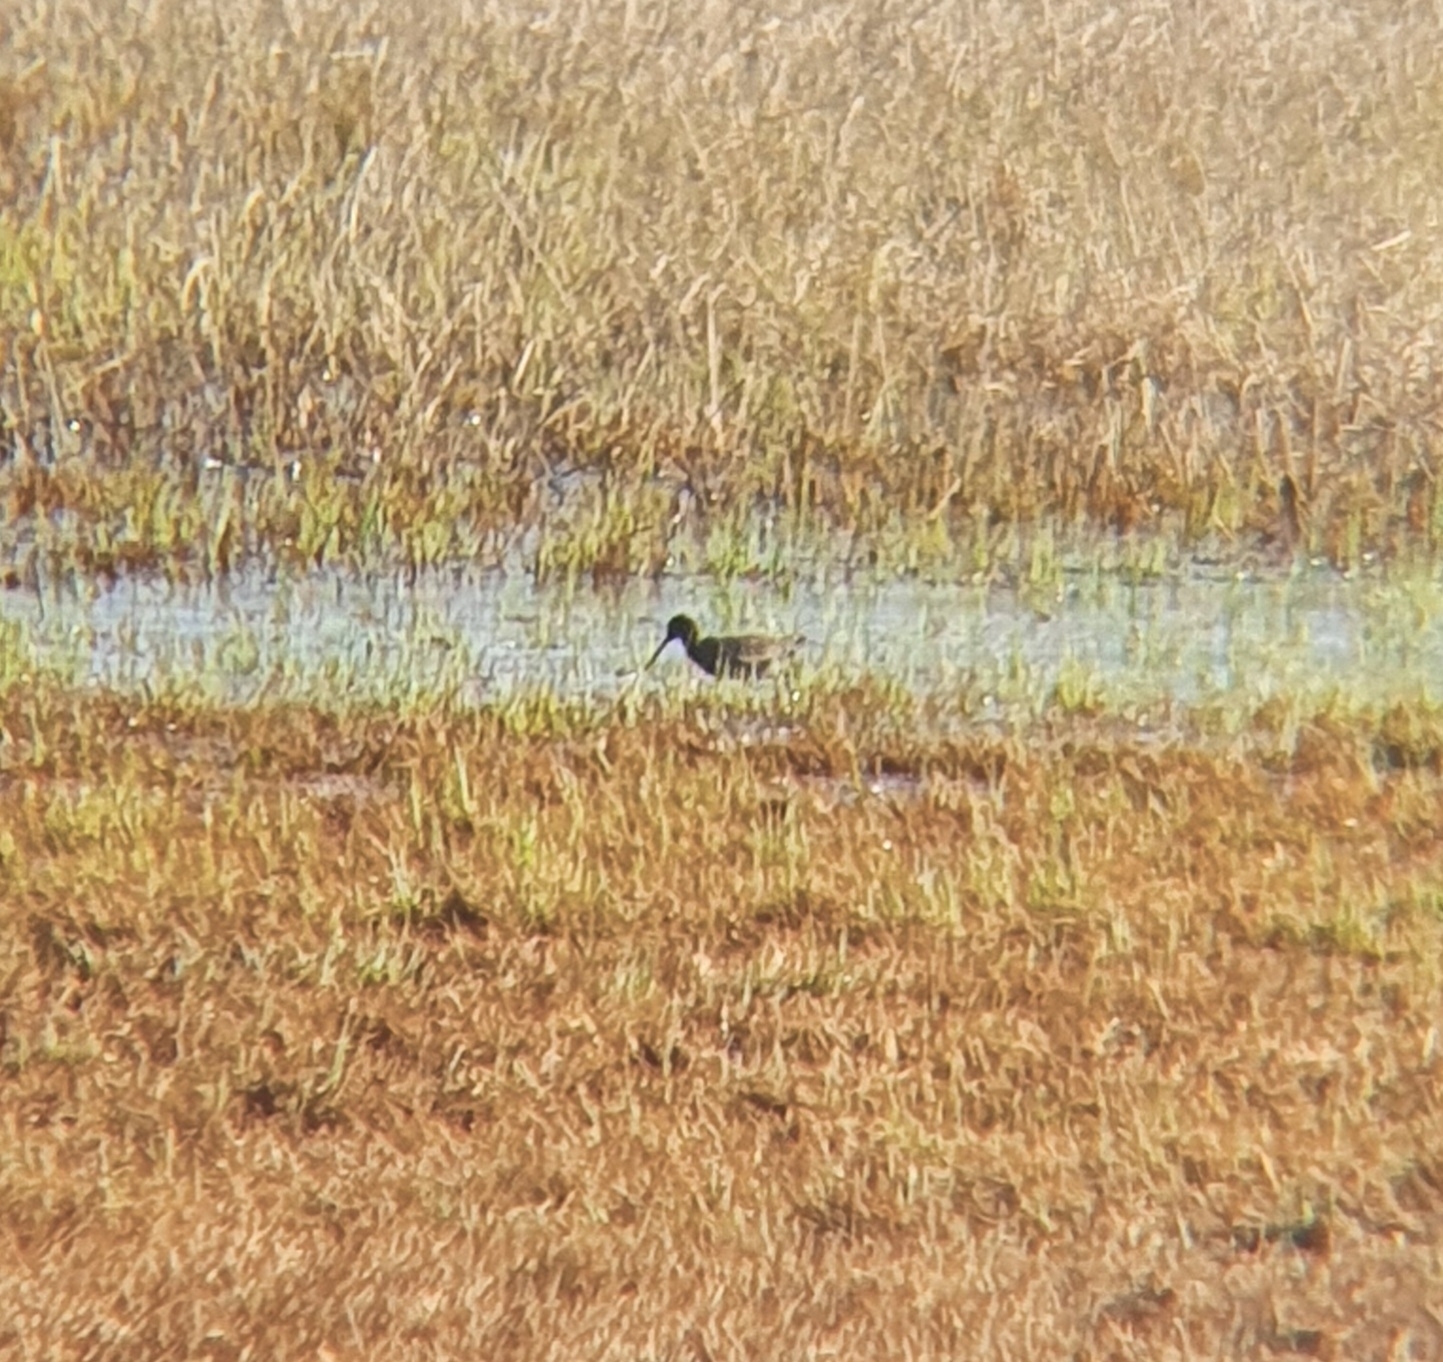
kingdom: Animalia
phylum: Chordata
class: Aves
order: Charadriiformes
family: Scolopacidae
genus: Tringa
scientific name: Tringa erythropus
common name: Spotted redshank
